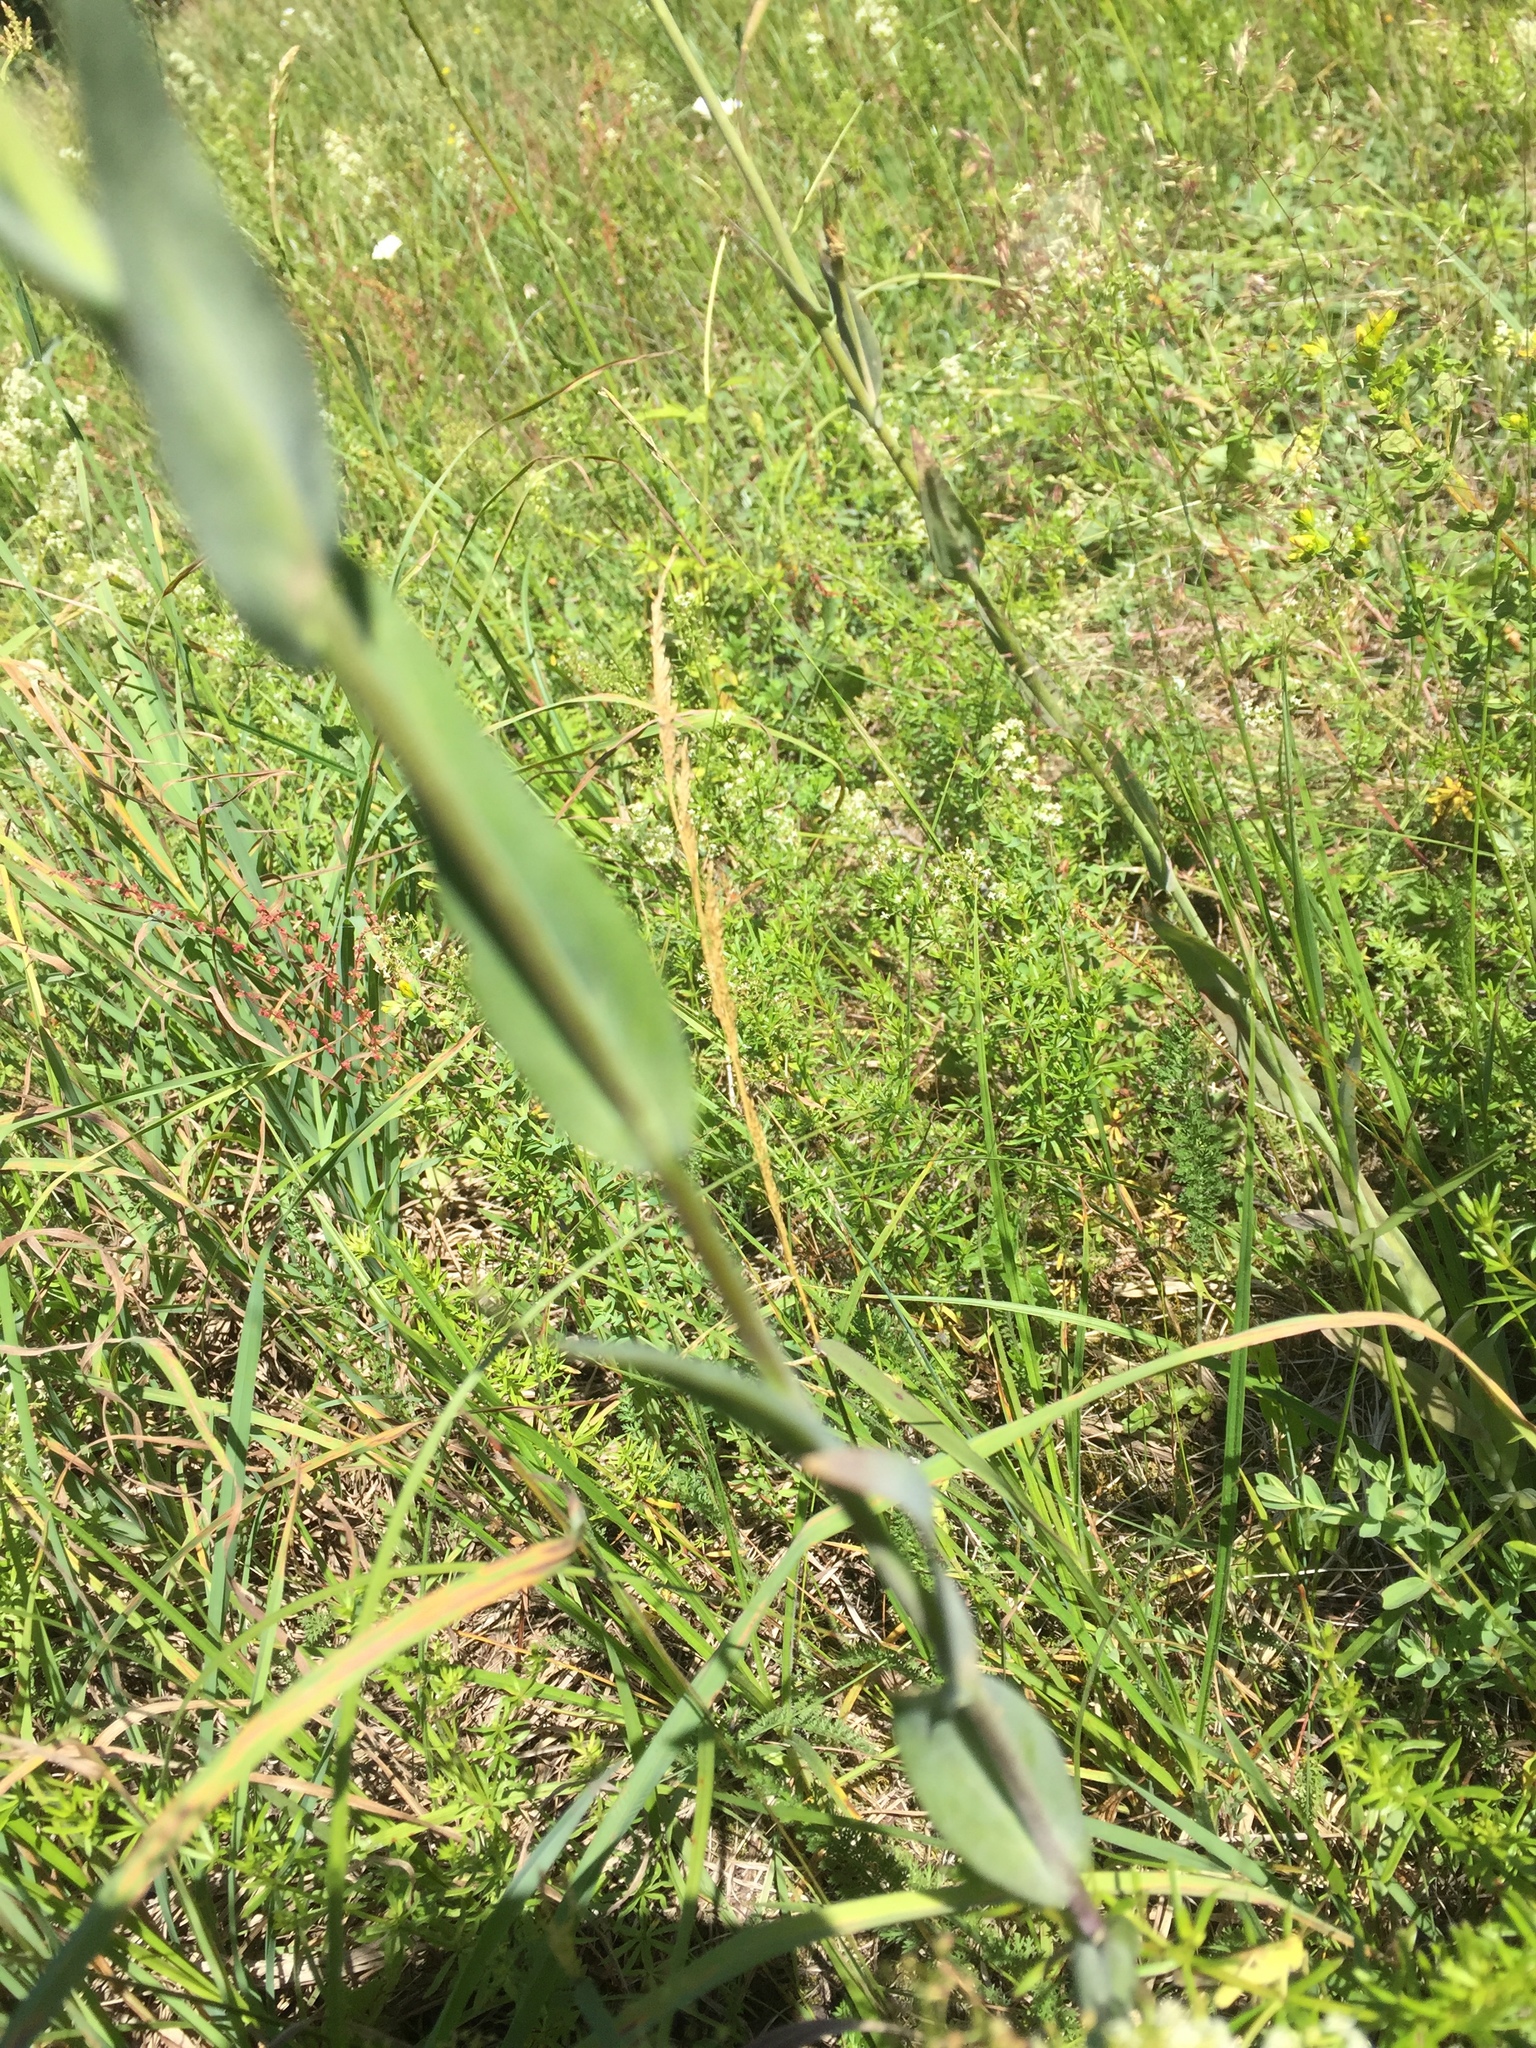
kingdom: Plantae
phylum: Tracheophyta
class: Magnoliopsida
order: Brassicales
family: Brassicaceae
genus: Turritis
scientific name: Turritis glabra
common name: Tower rockcress
